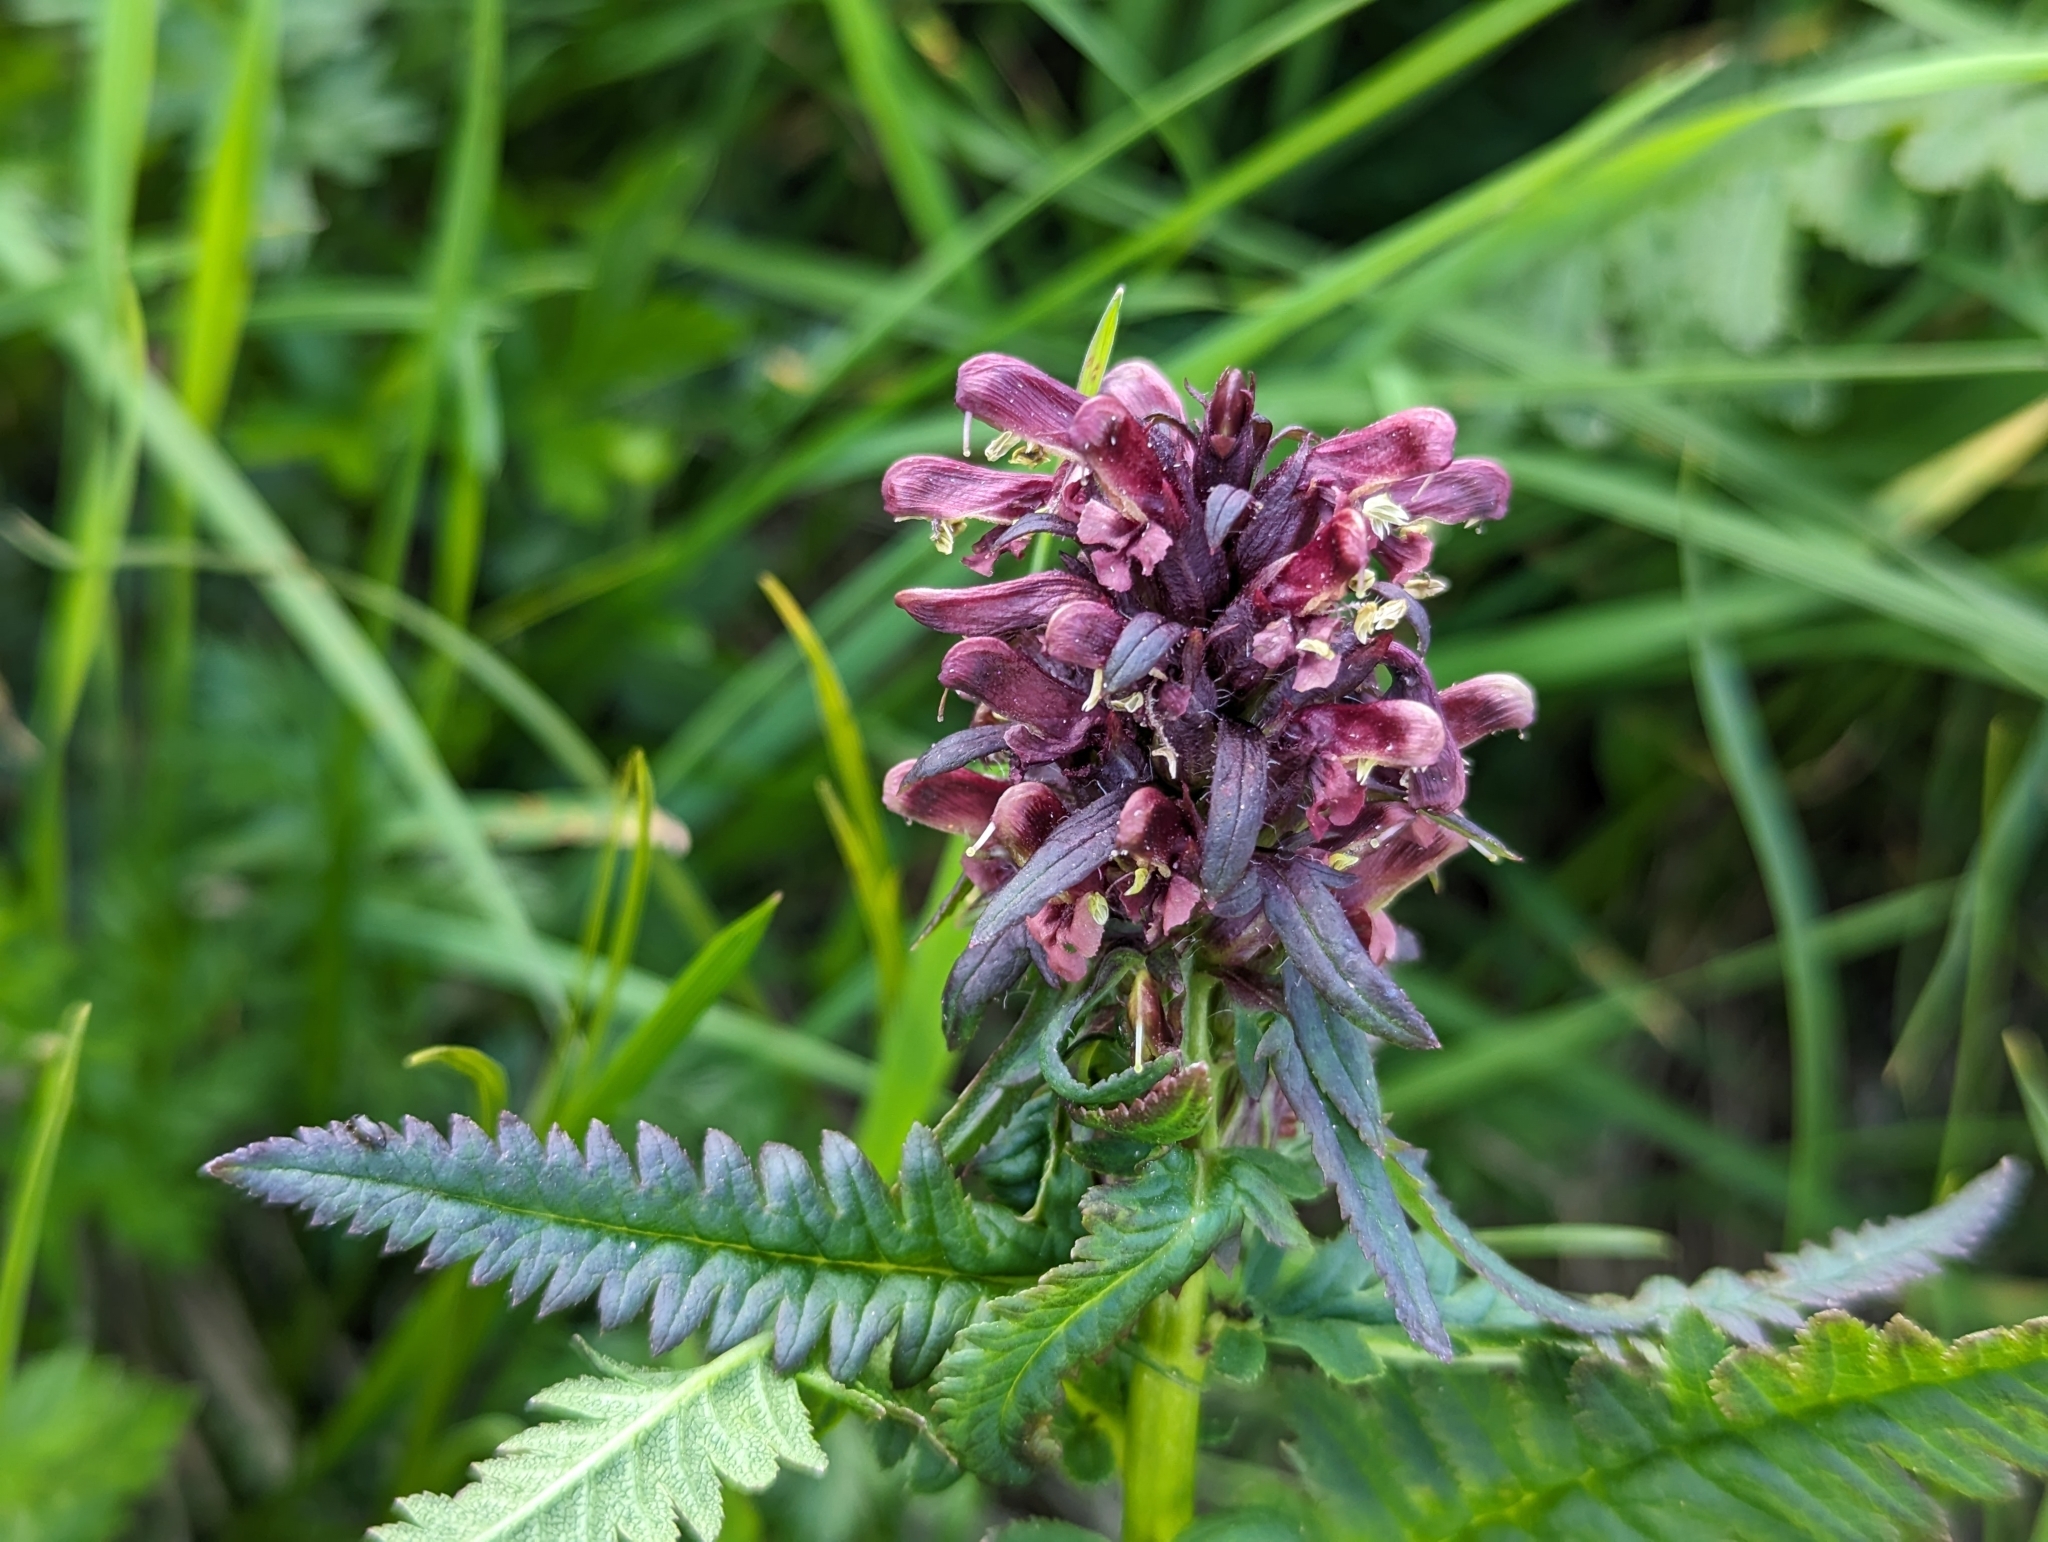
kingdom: Plantae
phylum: Tracheophyta
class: Magnoliopsida
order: Lamiales
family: Orobanchaceae
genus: Pedicularis
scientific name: Pedicularis recutita
